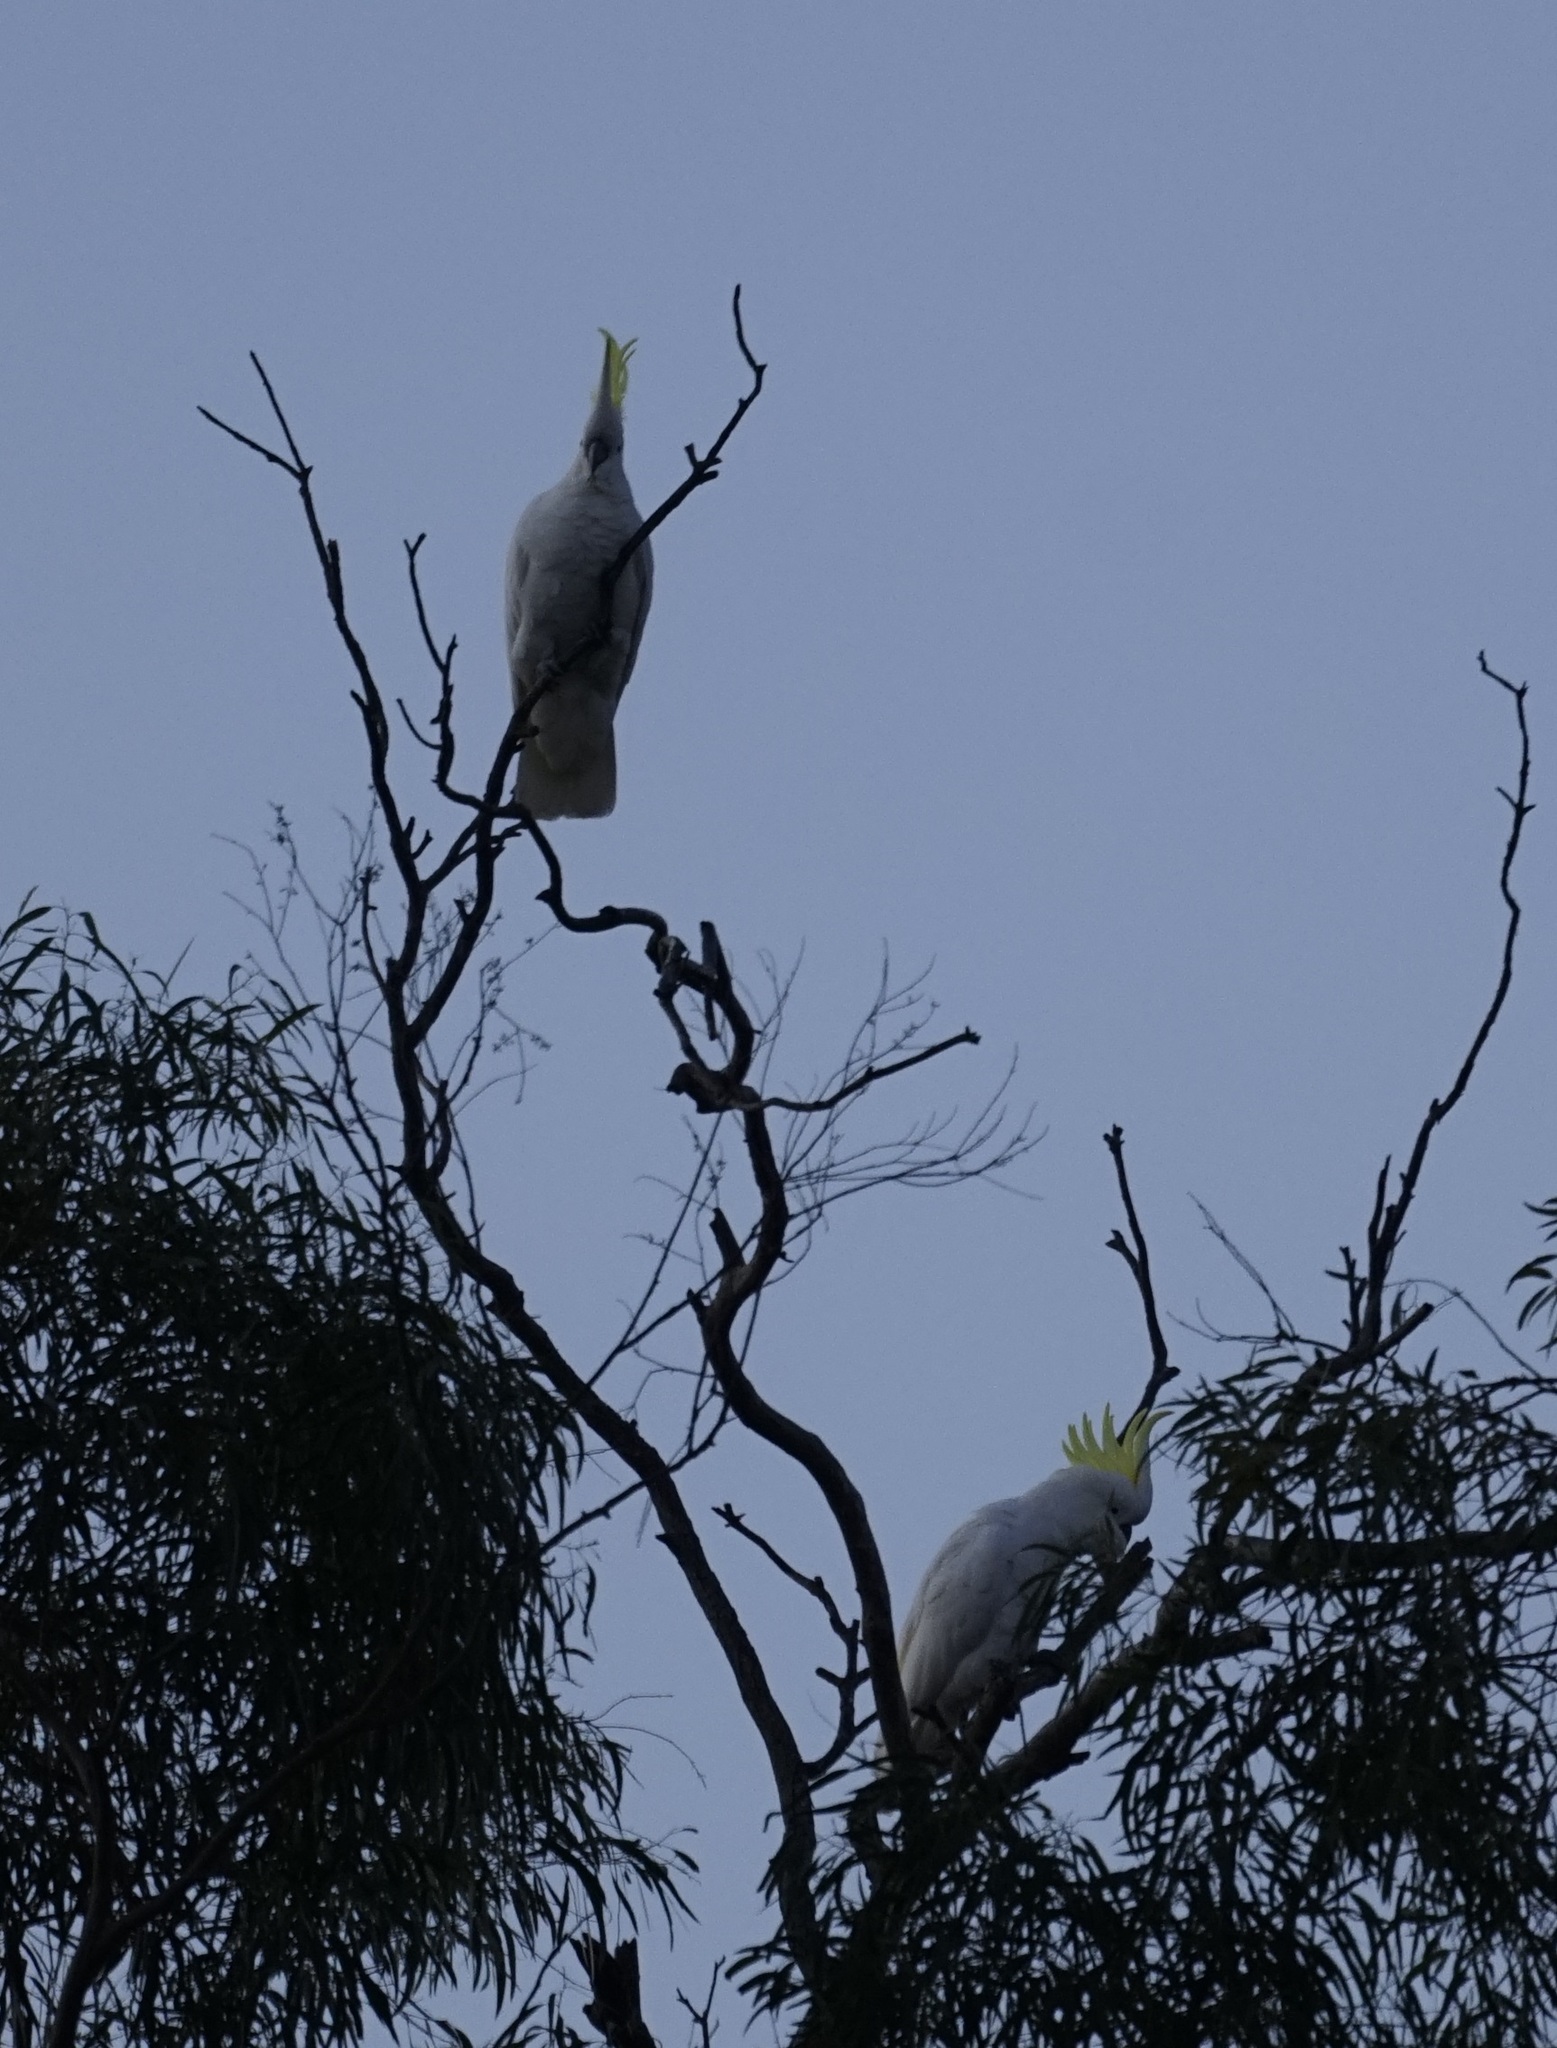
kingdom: Animalia
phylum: Chordata
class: Aves
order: Psittaciformes
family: Psittacidae
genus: Cacatua
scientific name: Cacatua galerita
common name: Sulphur-crested cockatoo
